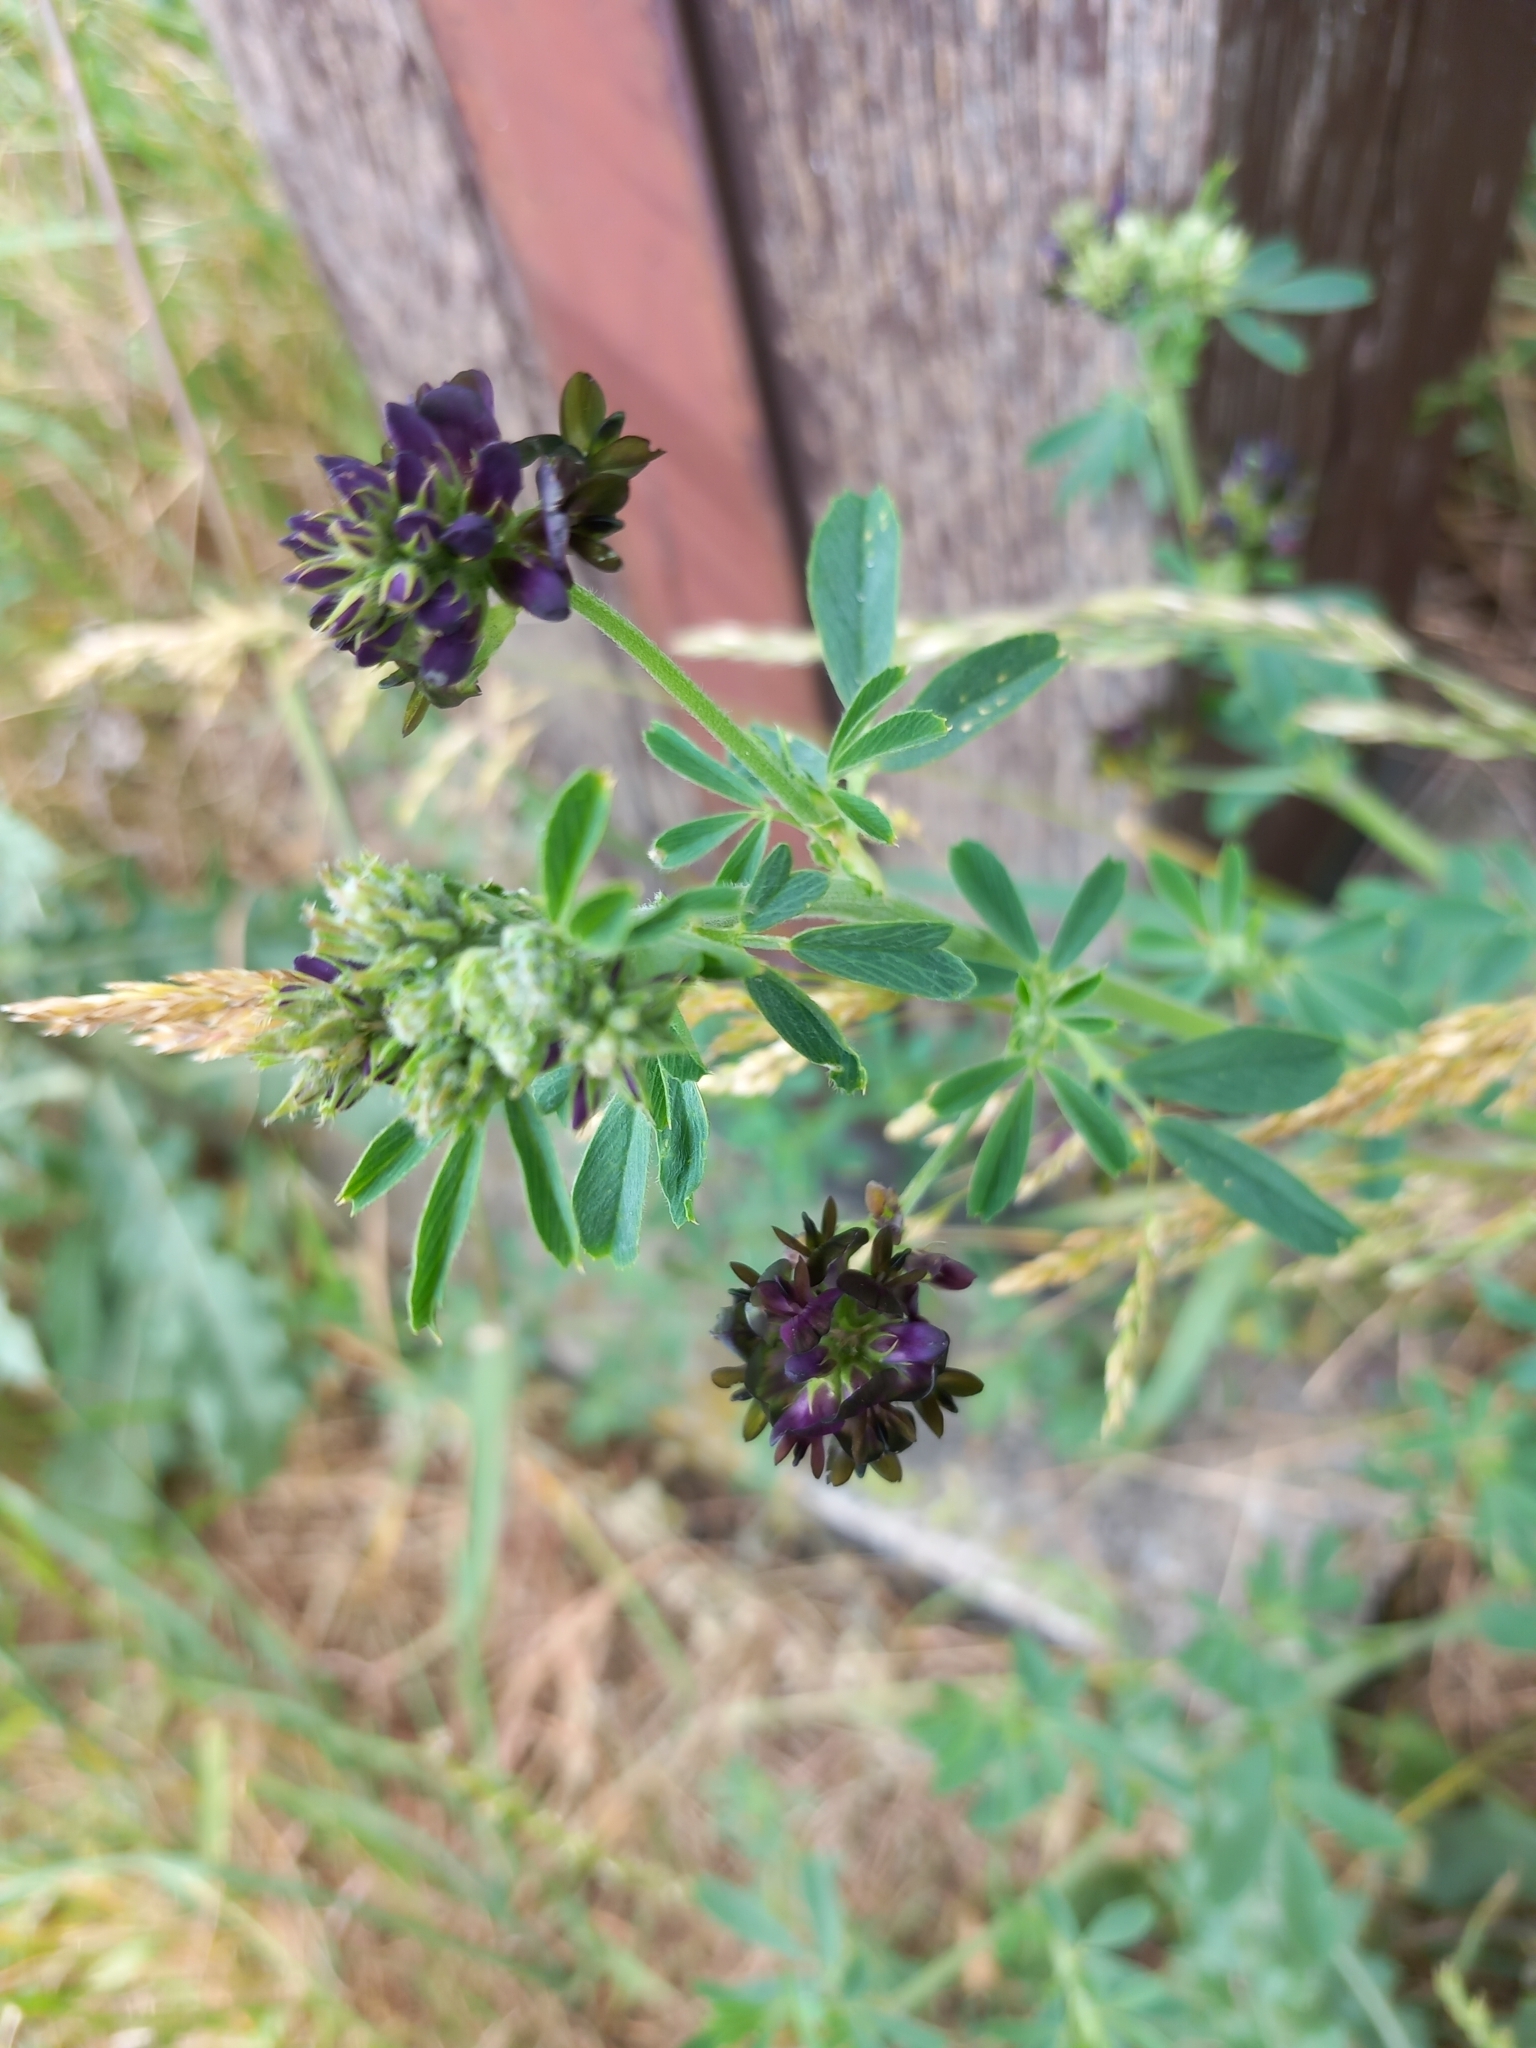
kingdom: Plantae
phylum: Tracheophyta
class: Magnoliopsida
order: Fabales
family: Fabaceae
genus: Medicago
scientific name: Medicago varia
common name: Sand lucerne
